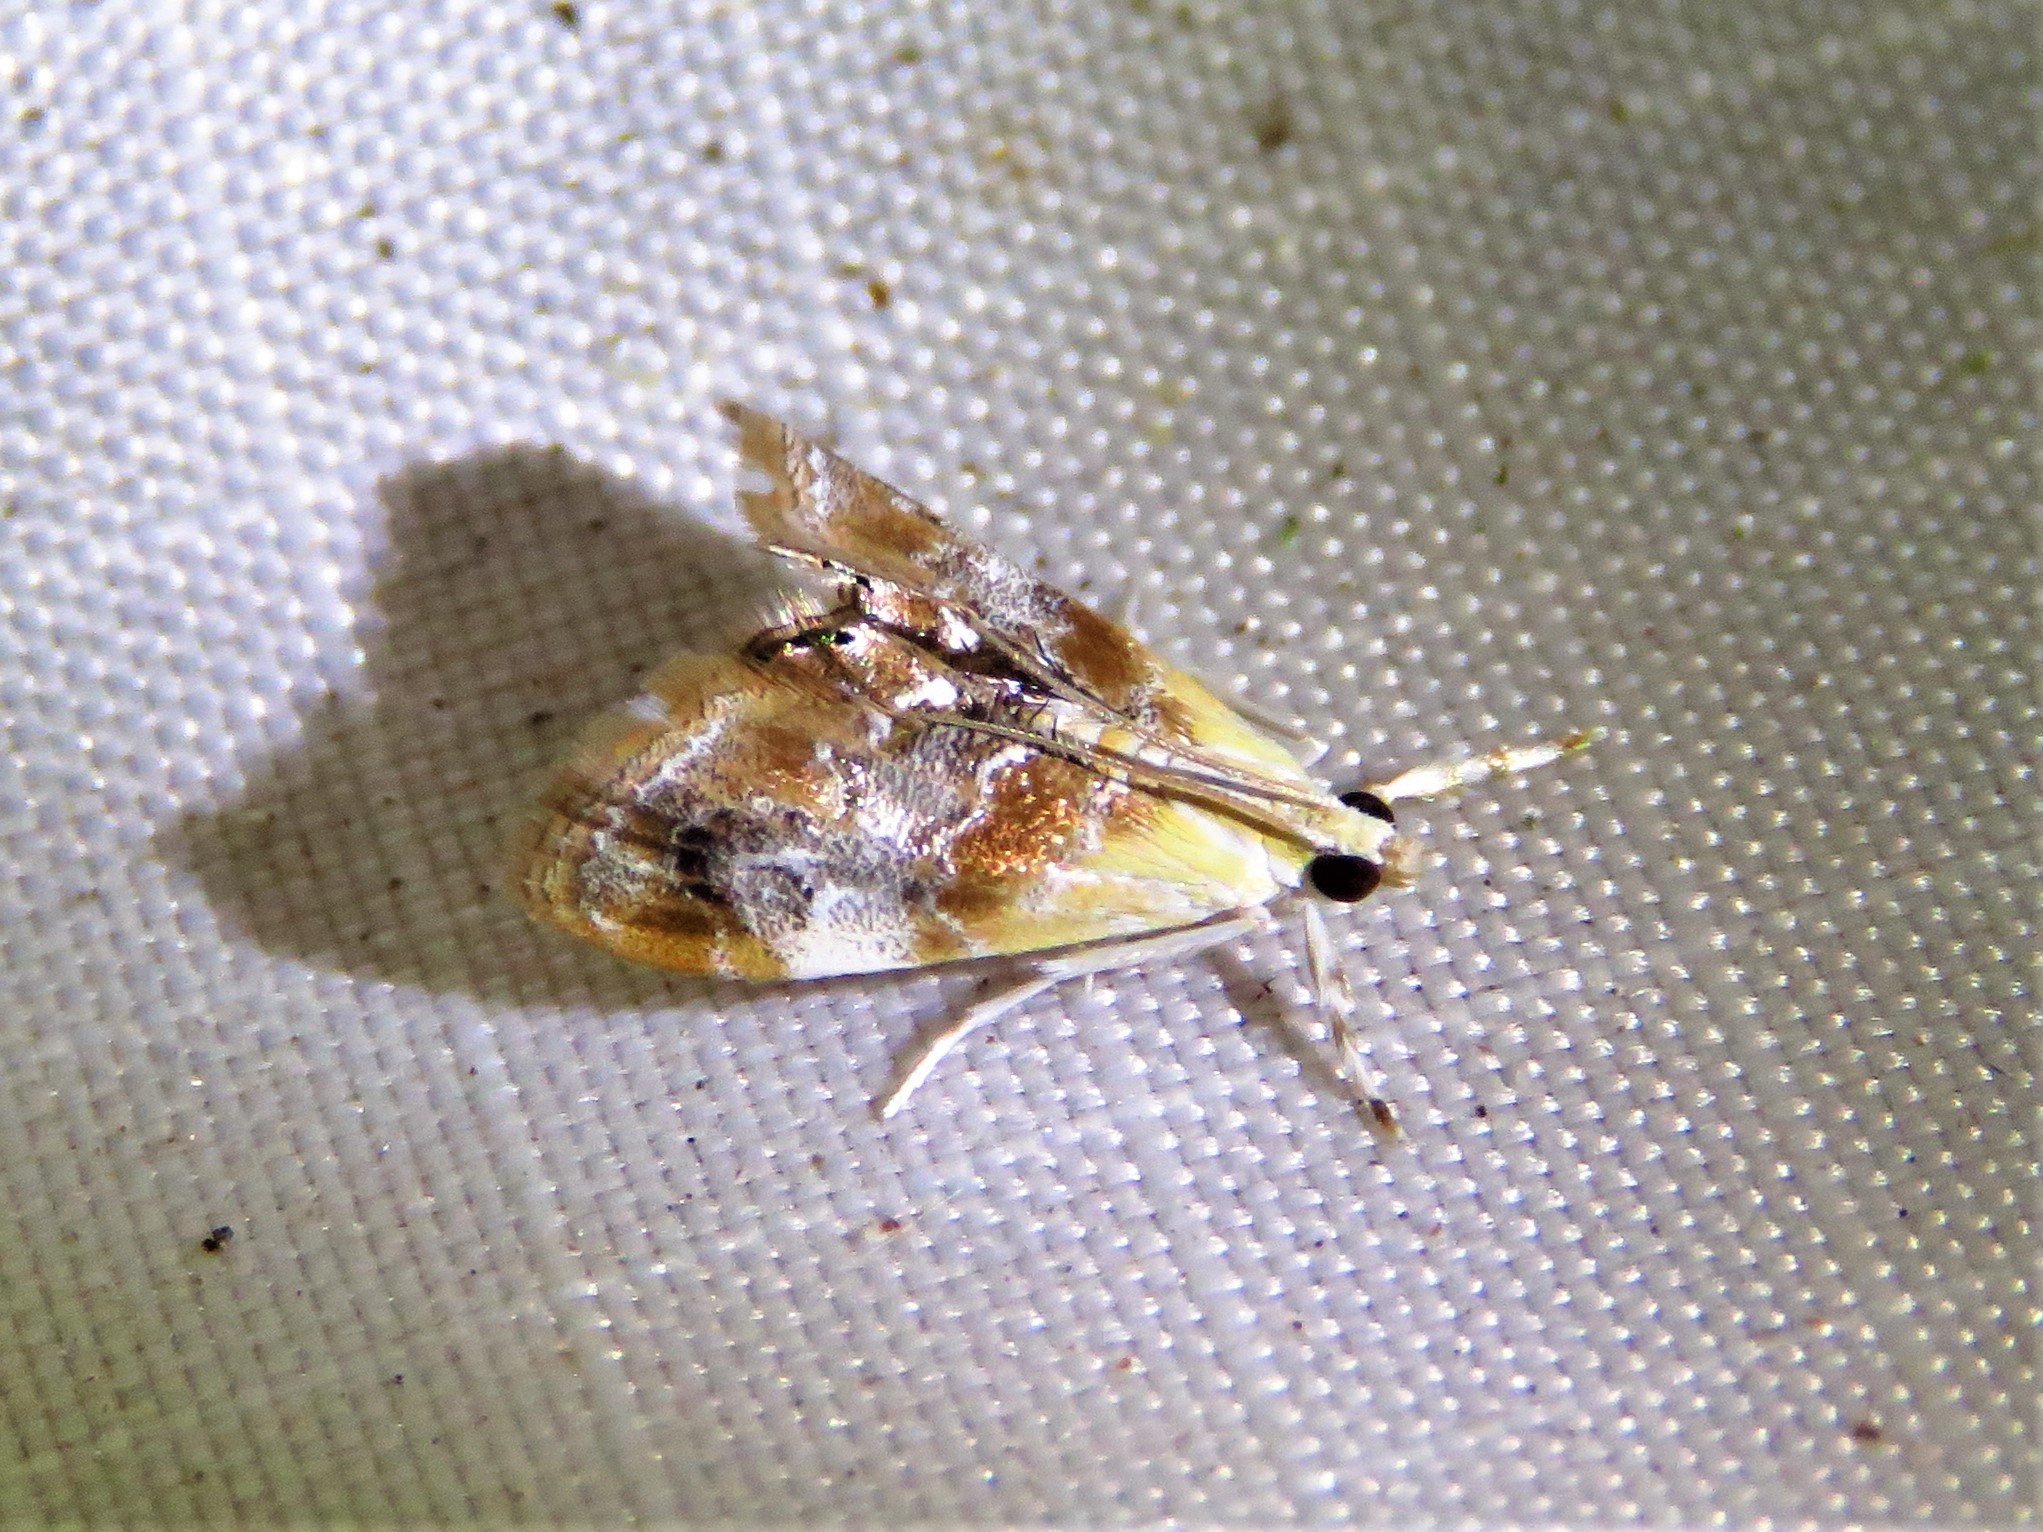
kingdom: Animalia
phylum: Arthropoda
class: Insecta
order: Lepidoptera
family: Crambidae
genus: Dicymolomia
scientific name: Dicymolomia julianalis
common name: Julia's dicymolomia moth
